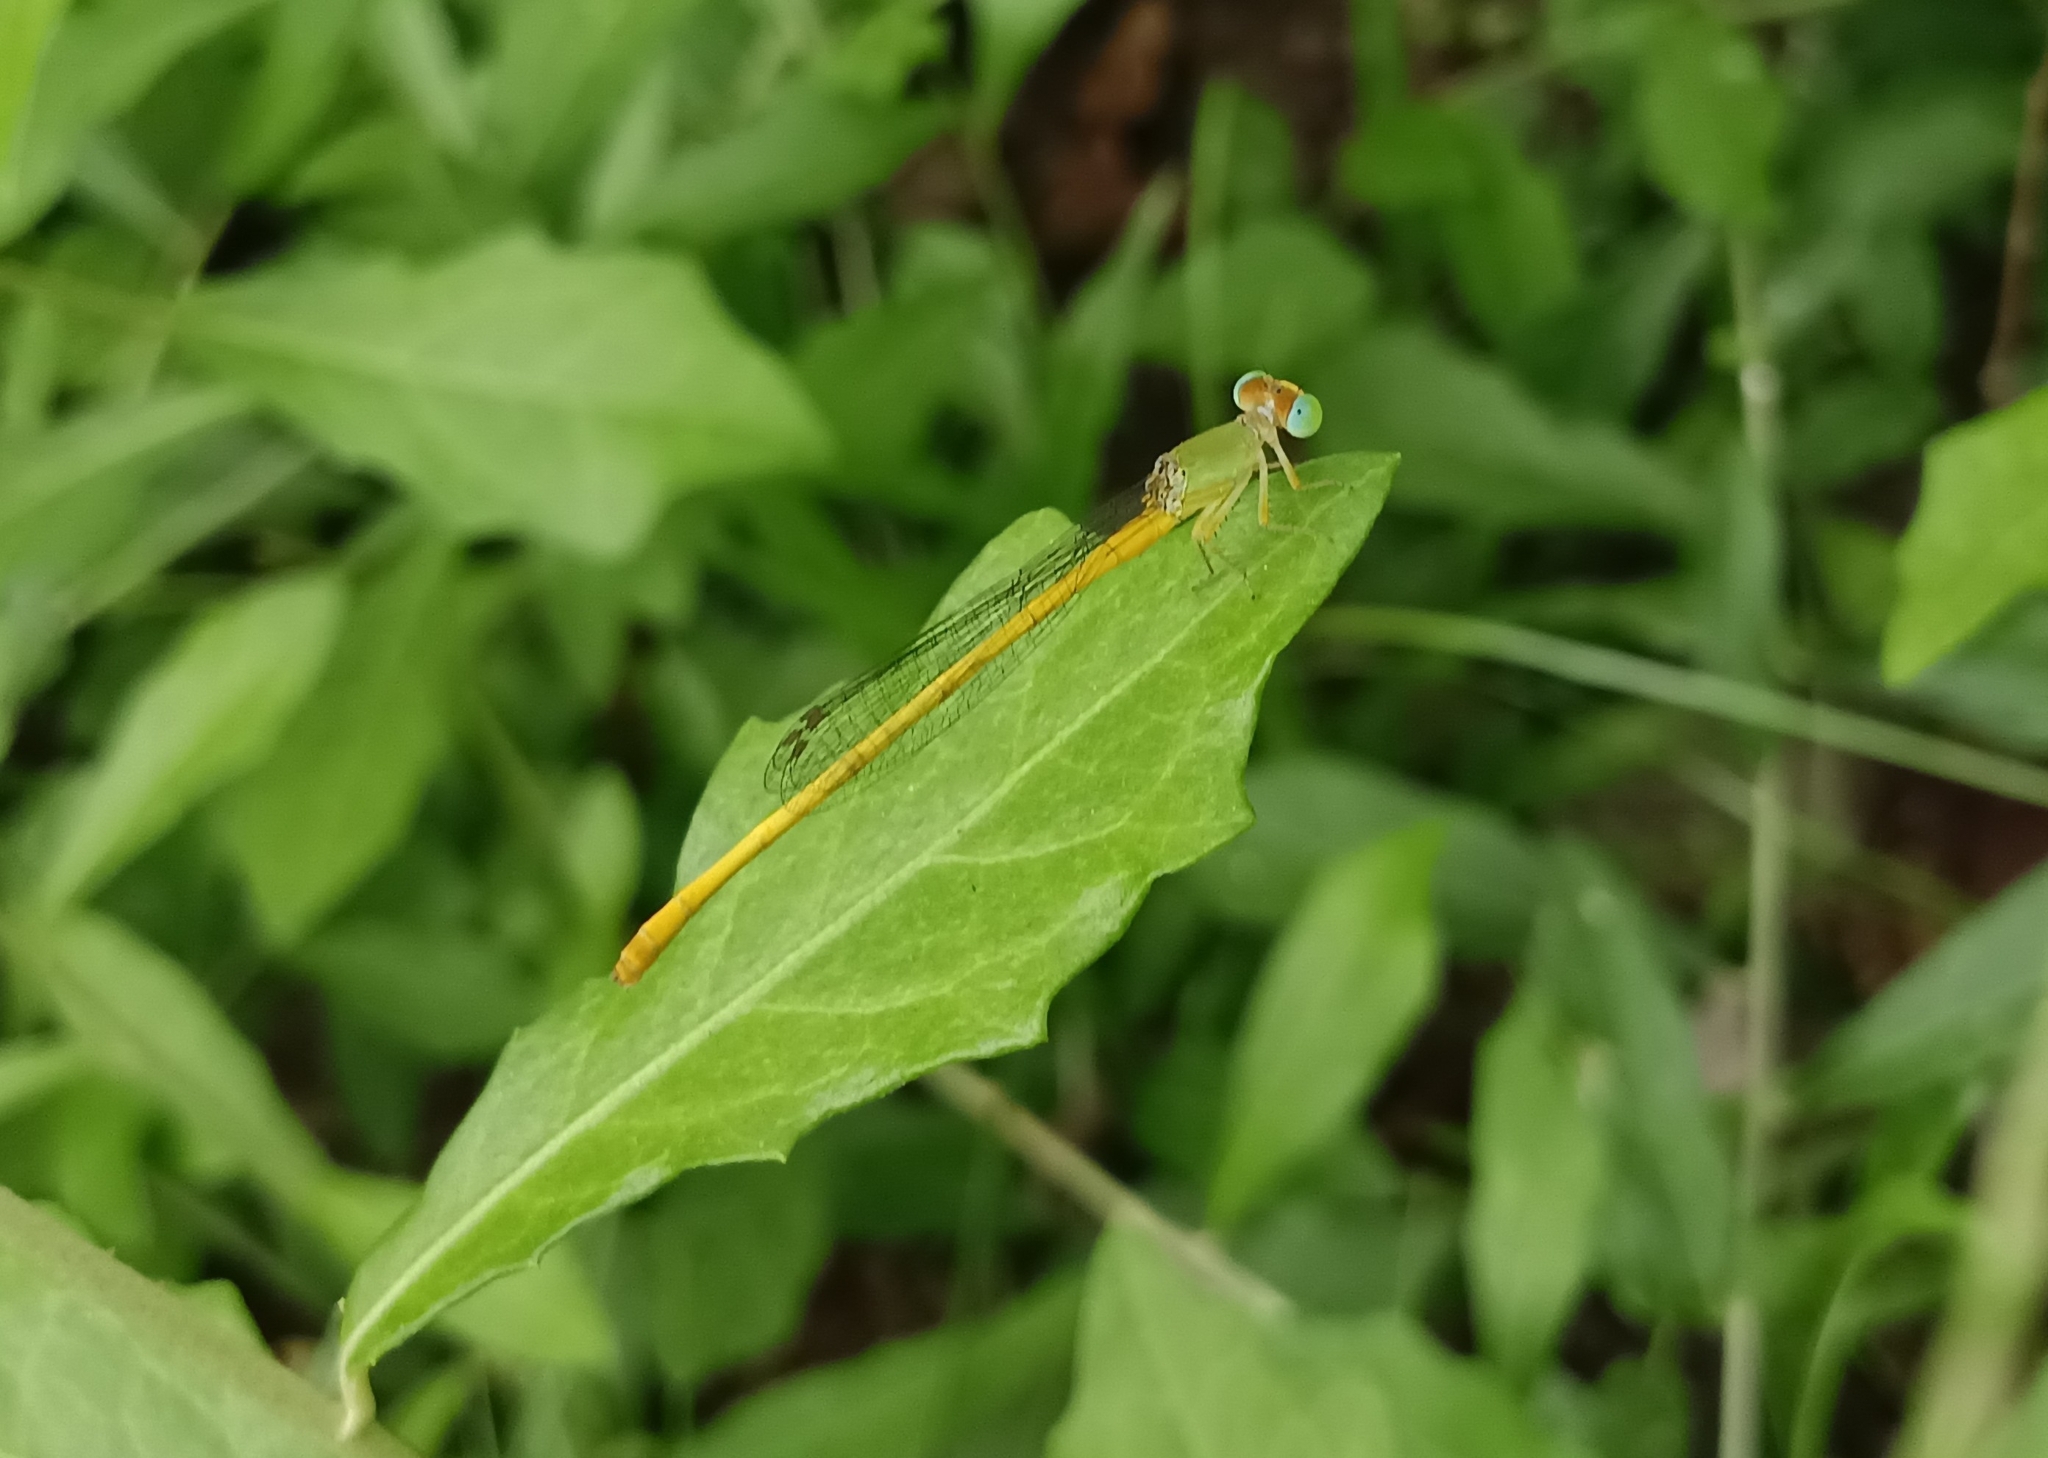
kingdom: Animalia
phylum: Arthropoda
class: Insecta
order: Odonata
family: Coenagrionidae
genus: Ceriagrion
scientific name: Ceriagrion coromandelianum
